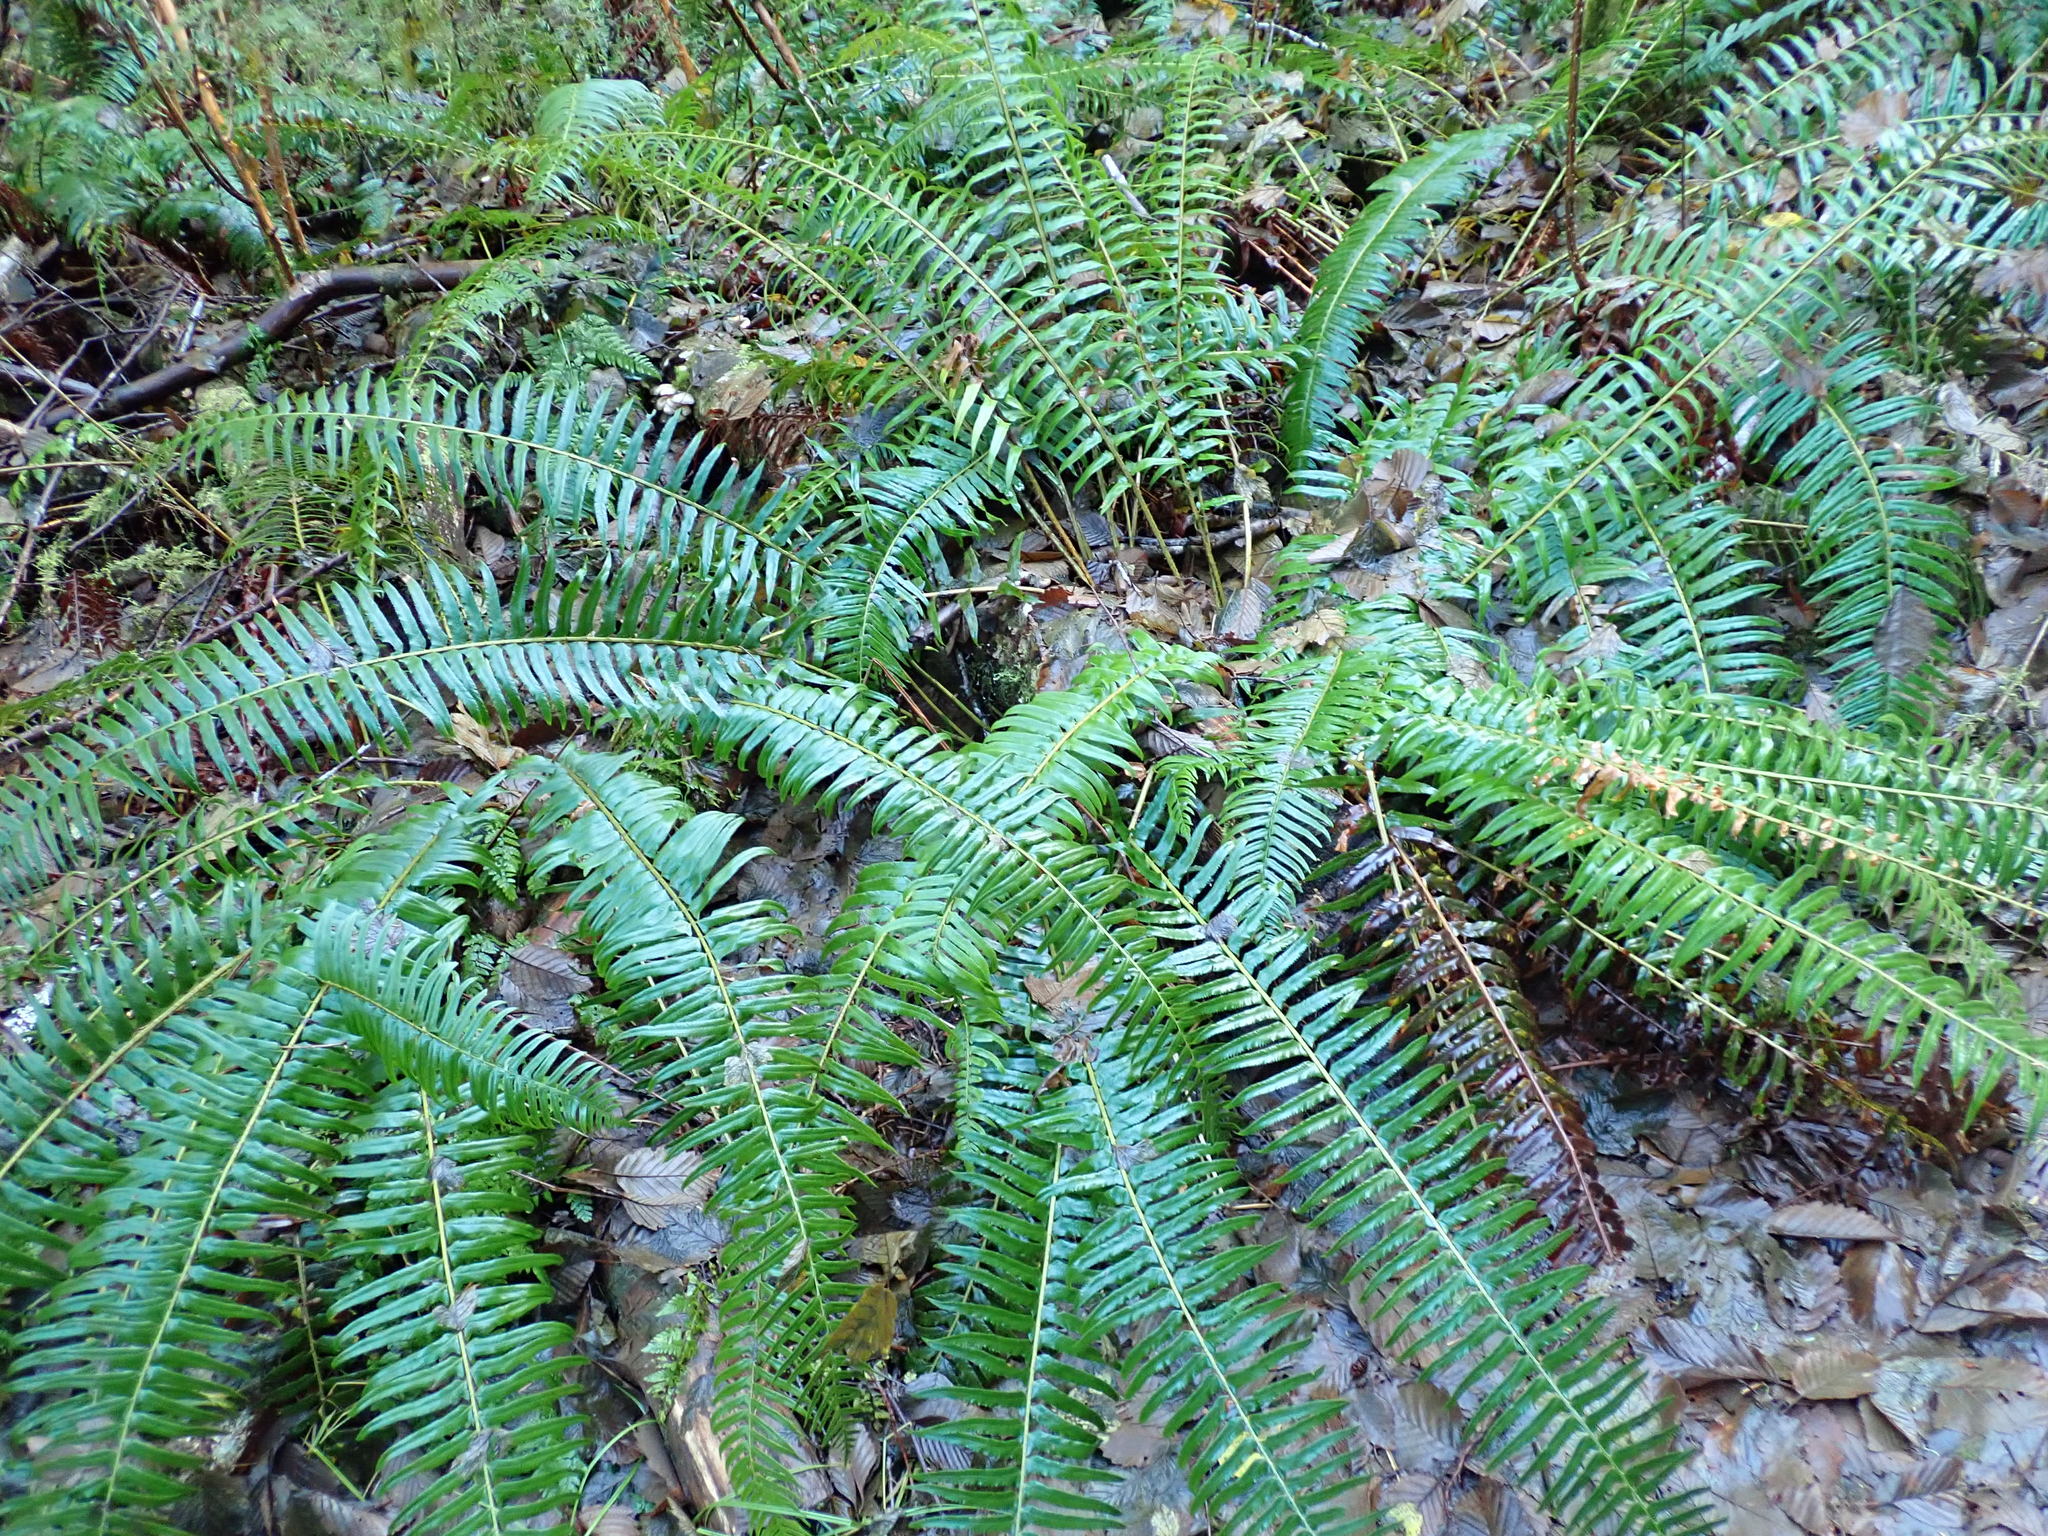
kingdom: Plantae
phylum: Tracheophyta
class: Polypodiopsida
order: Polypodiales
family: Dryopteridaceae
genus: Polystichum
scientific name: Polystichum munitum
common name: Western sword-fern
